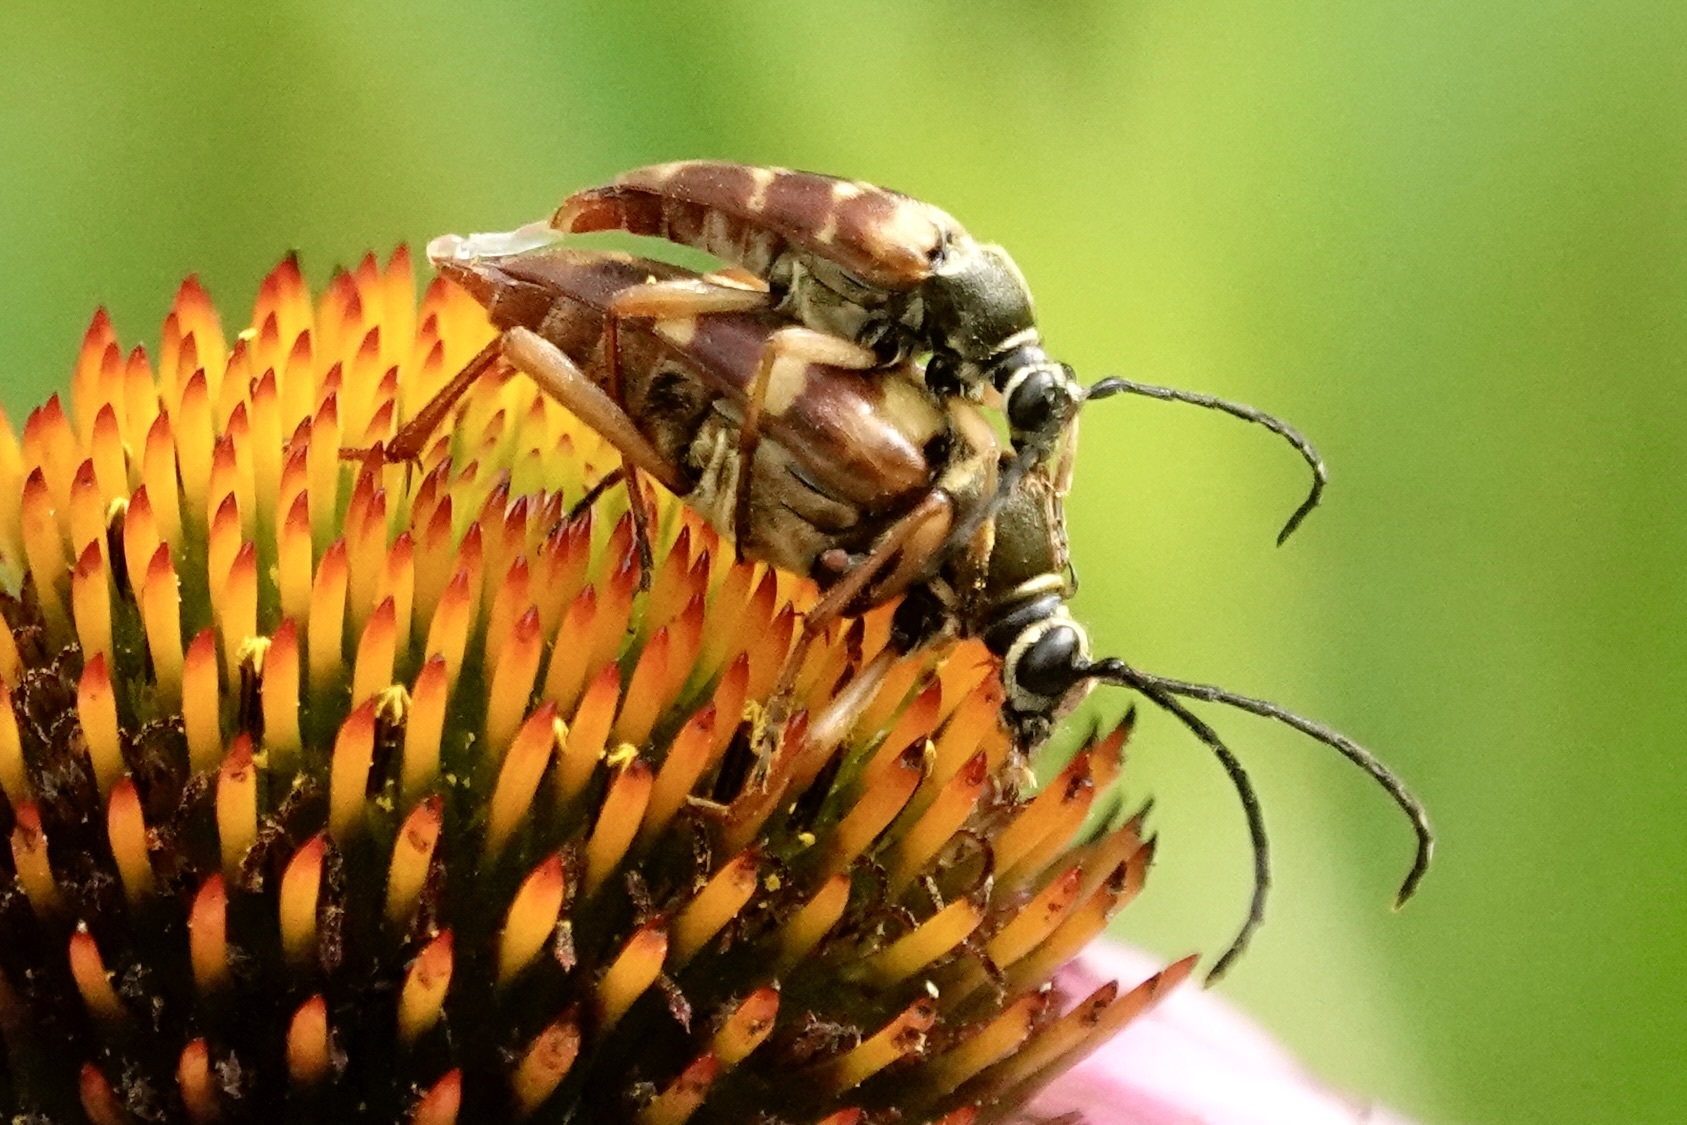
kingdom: Animalia
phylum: Arthropoda
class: Insecta
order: Coleoptera
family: Cerambycidae
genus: Typocerus
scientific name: Typocerus velutinus
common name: Banded longhorn beetle
